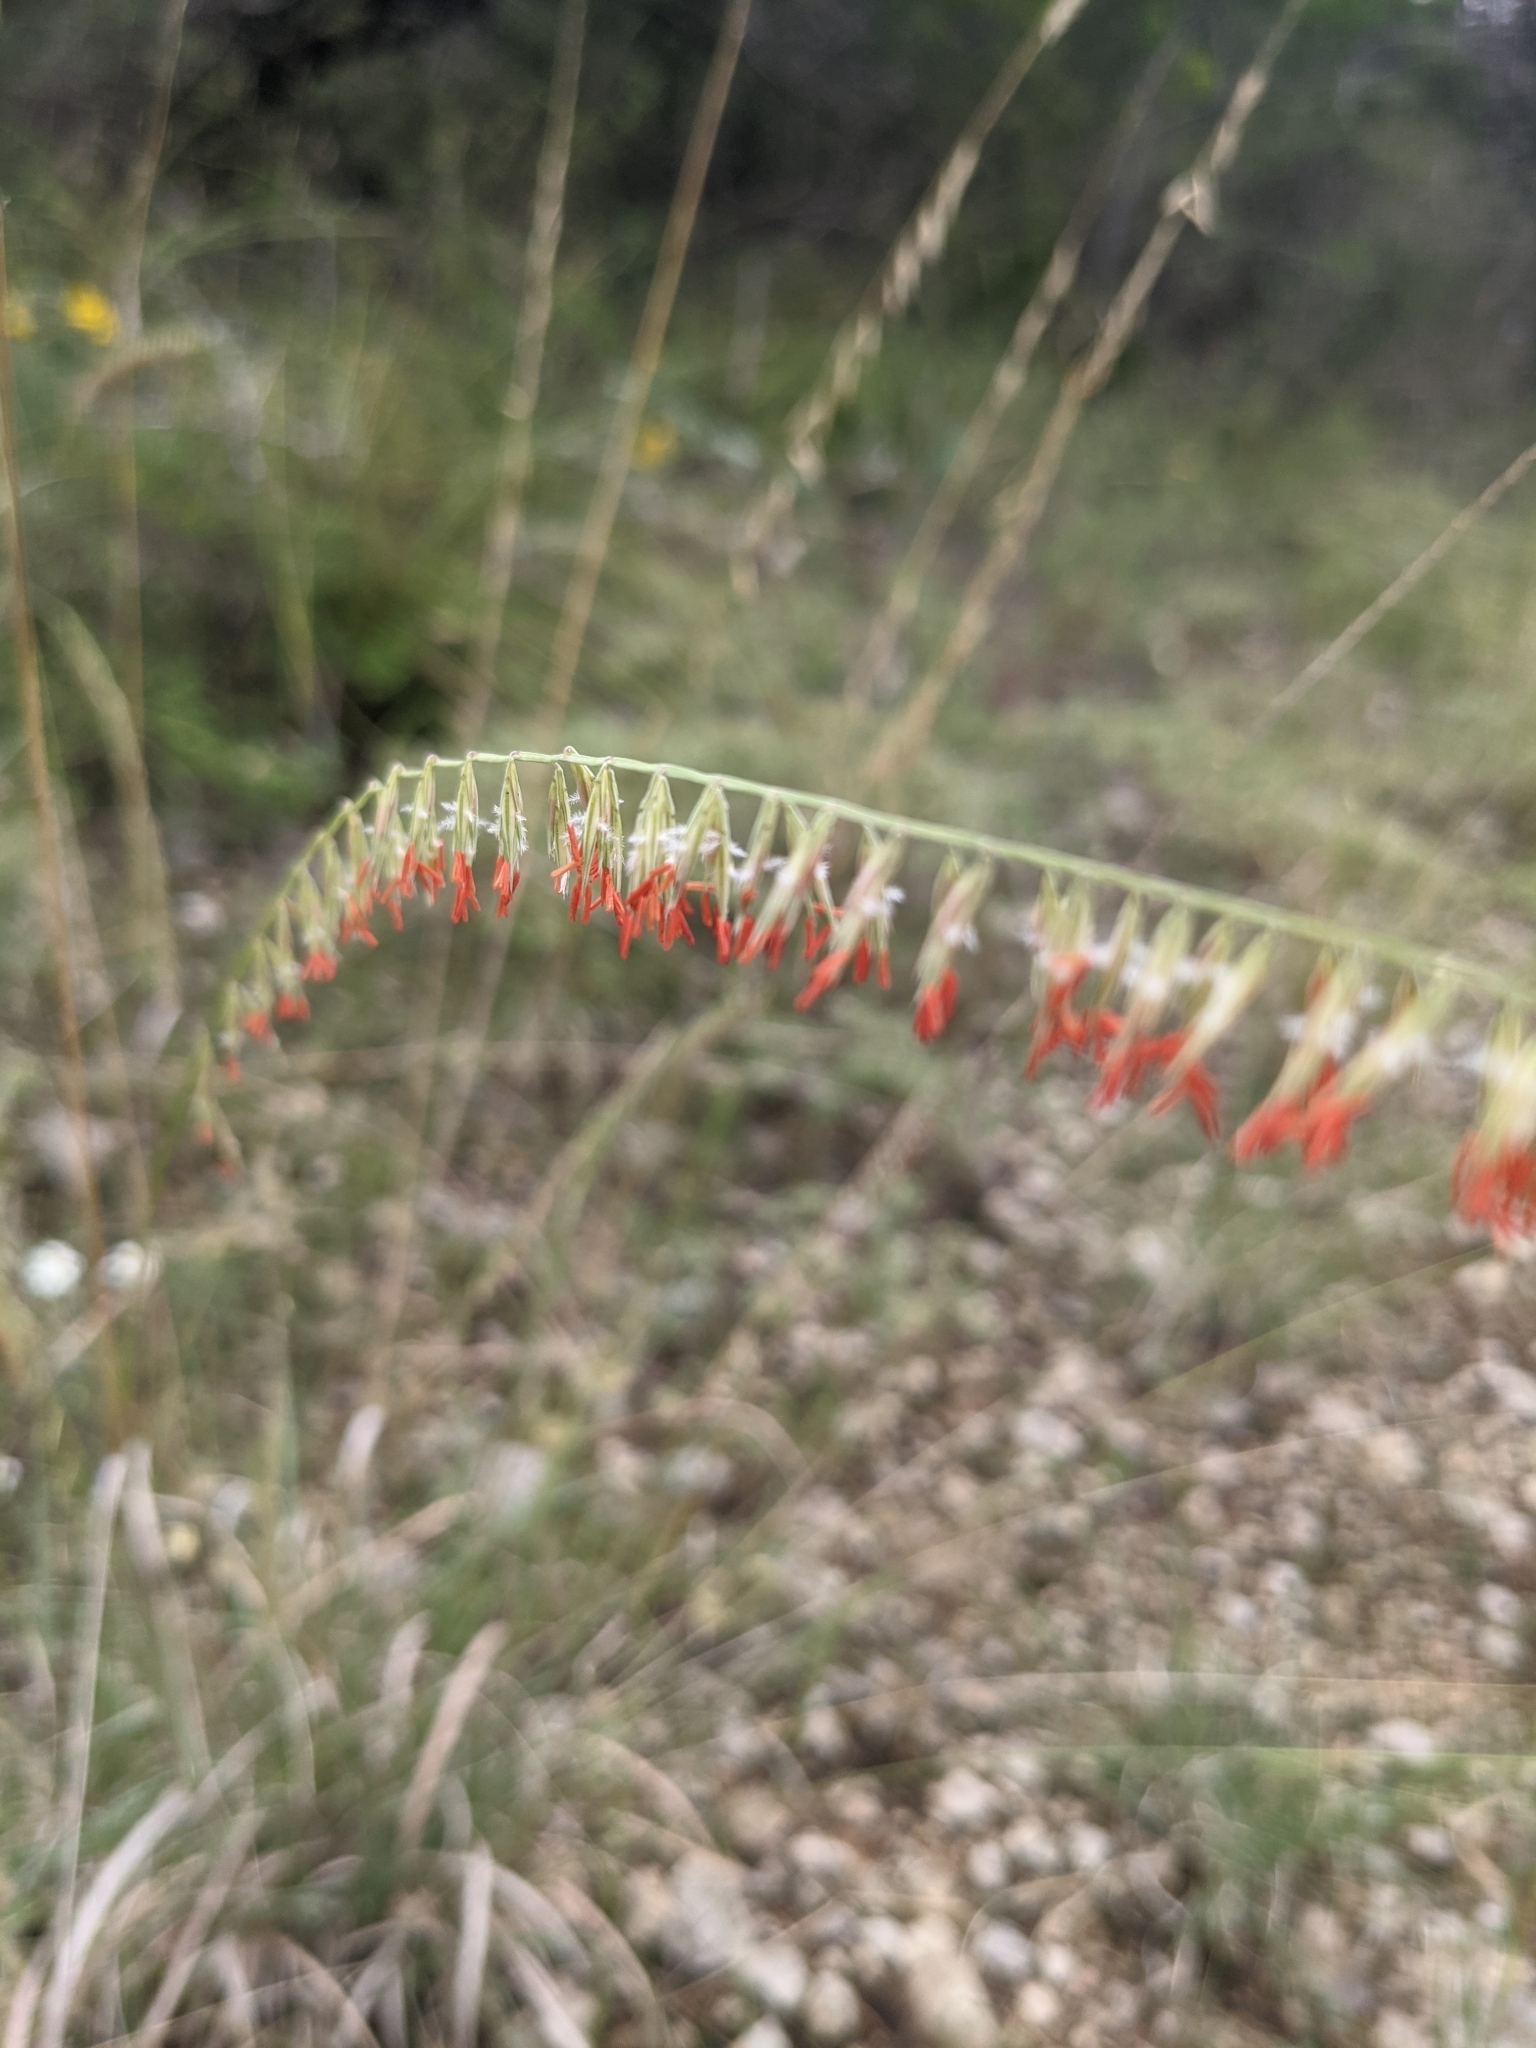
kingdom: Plantae
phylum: Tracheophyta
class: Liliopsida
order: Poales
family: Poaceae
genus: Bouteloua
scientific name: Bouteloua curtipendula
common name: Side-oats grama
